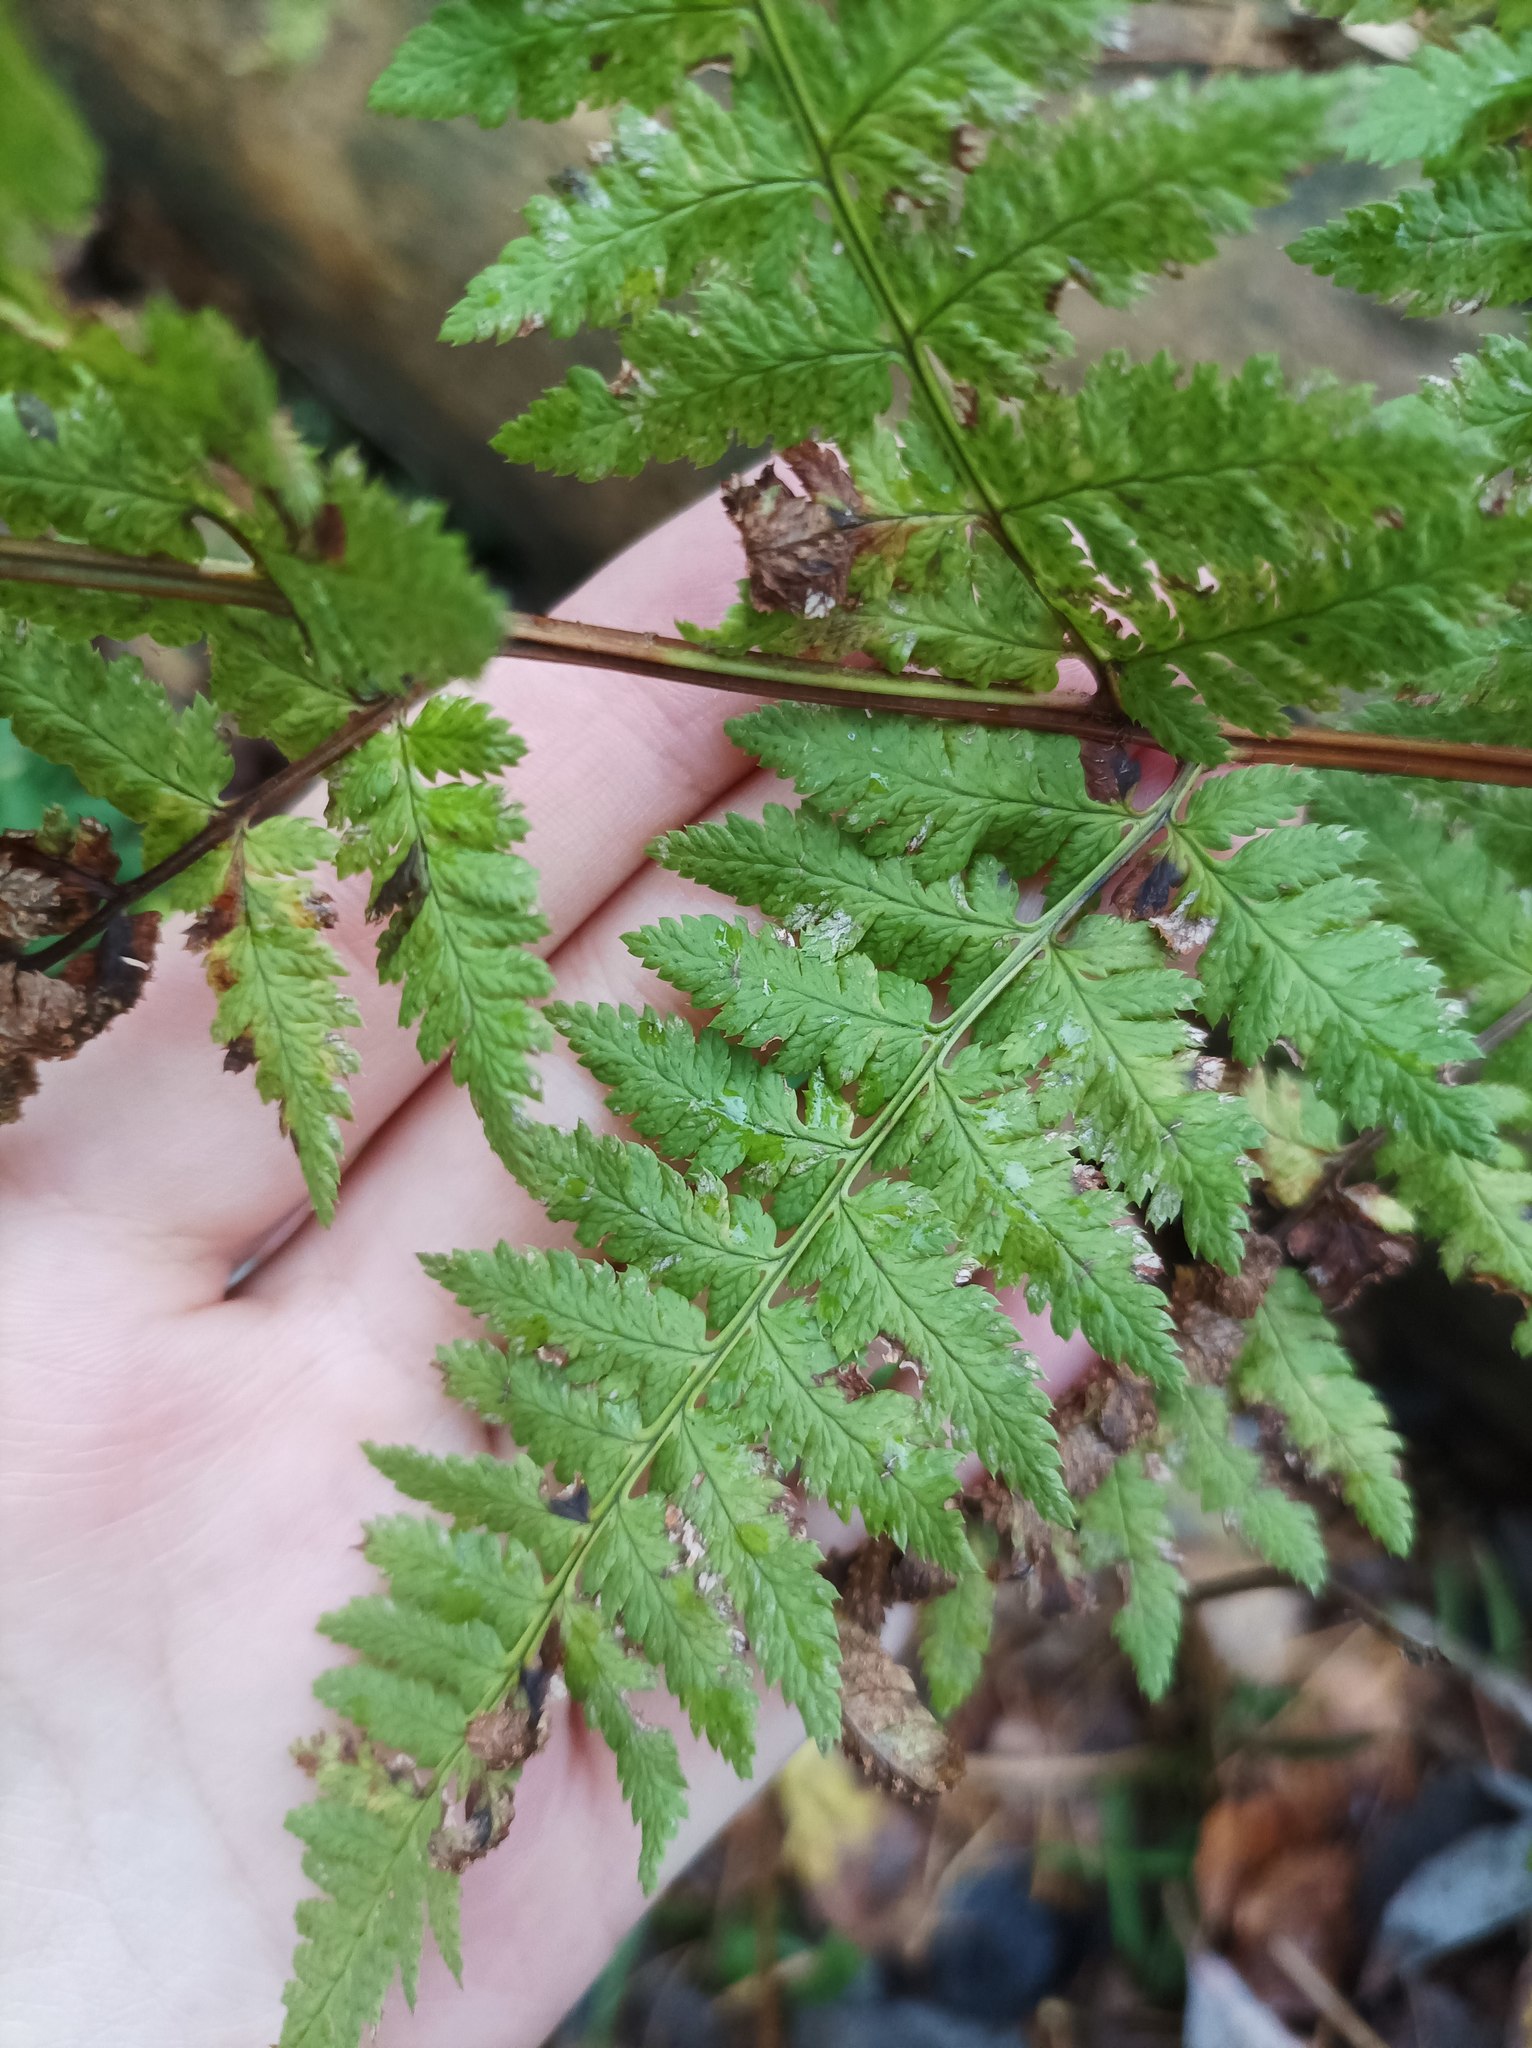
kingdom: Plantae
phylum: Tracheophyta
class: Polypodiopsida
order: Polypodiales
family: Dryopteridaceae
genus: Dryopteris
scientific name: Dryopteris carthusiana
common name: Narrow buckler-fern
